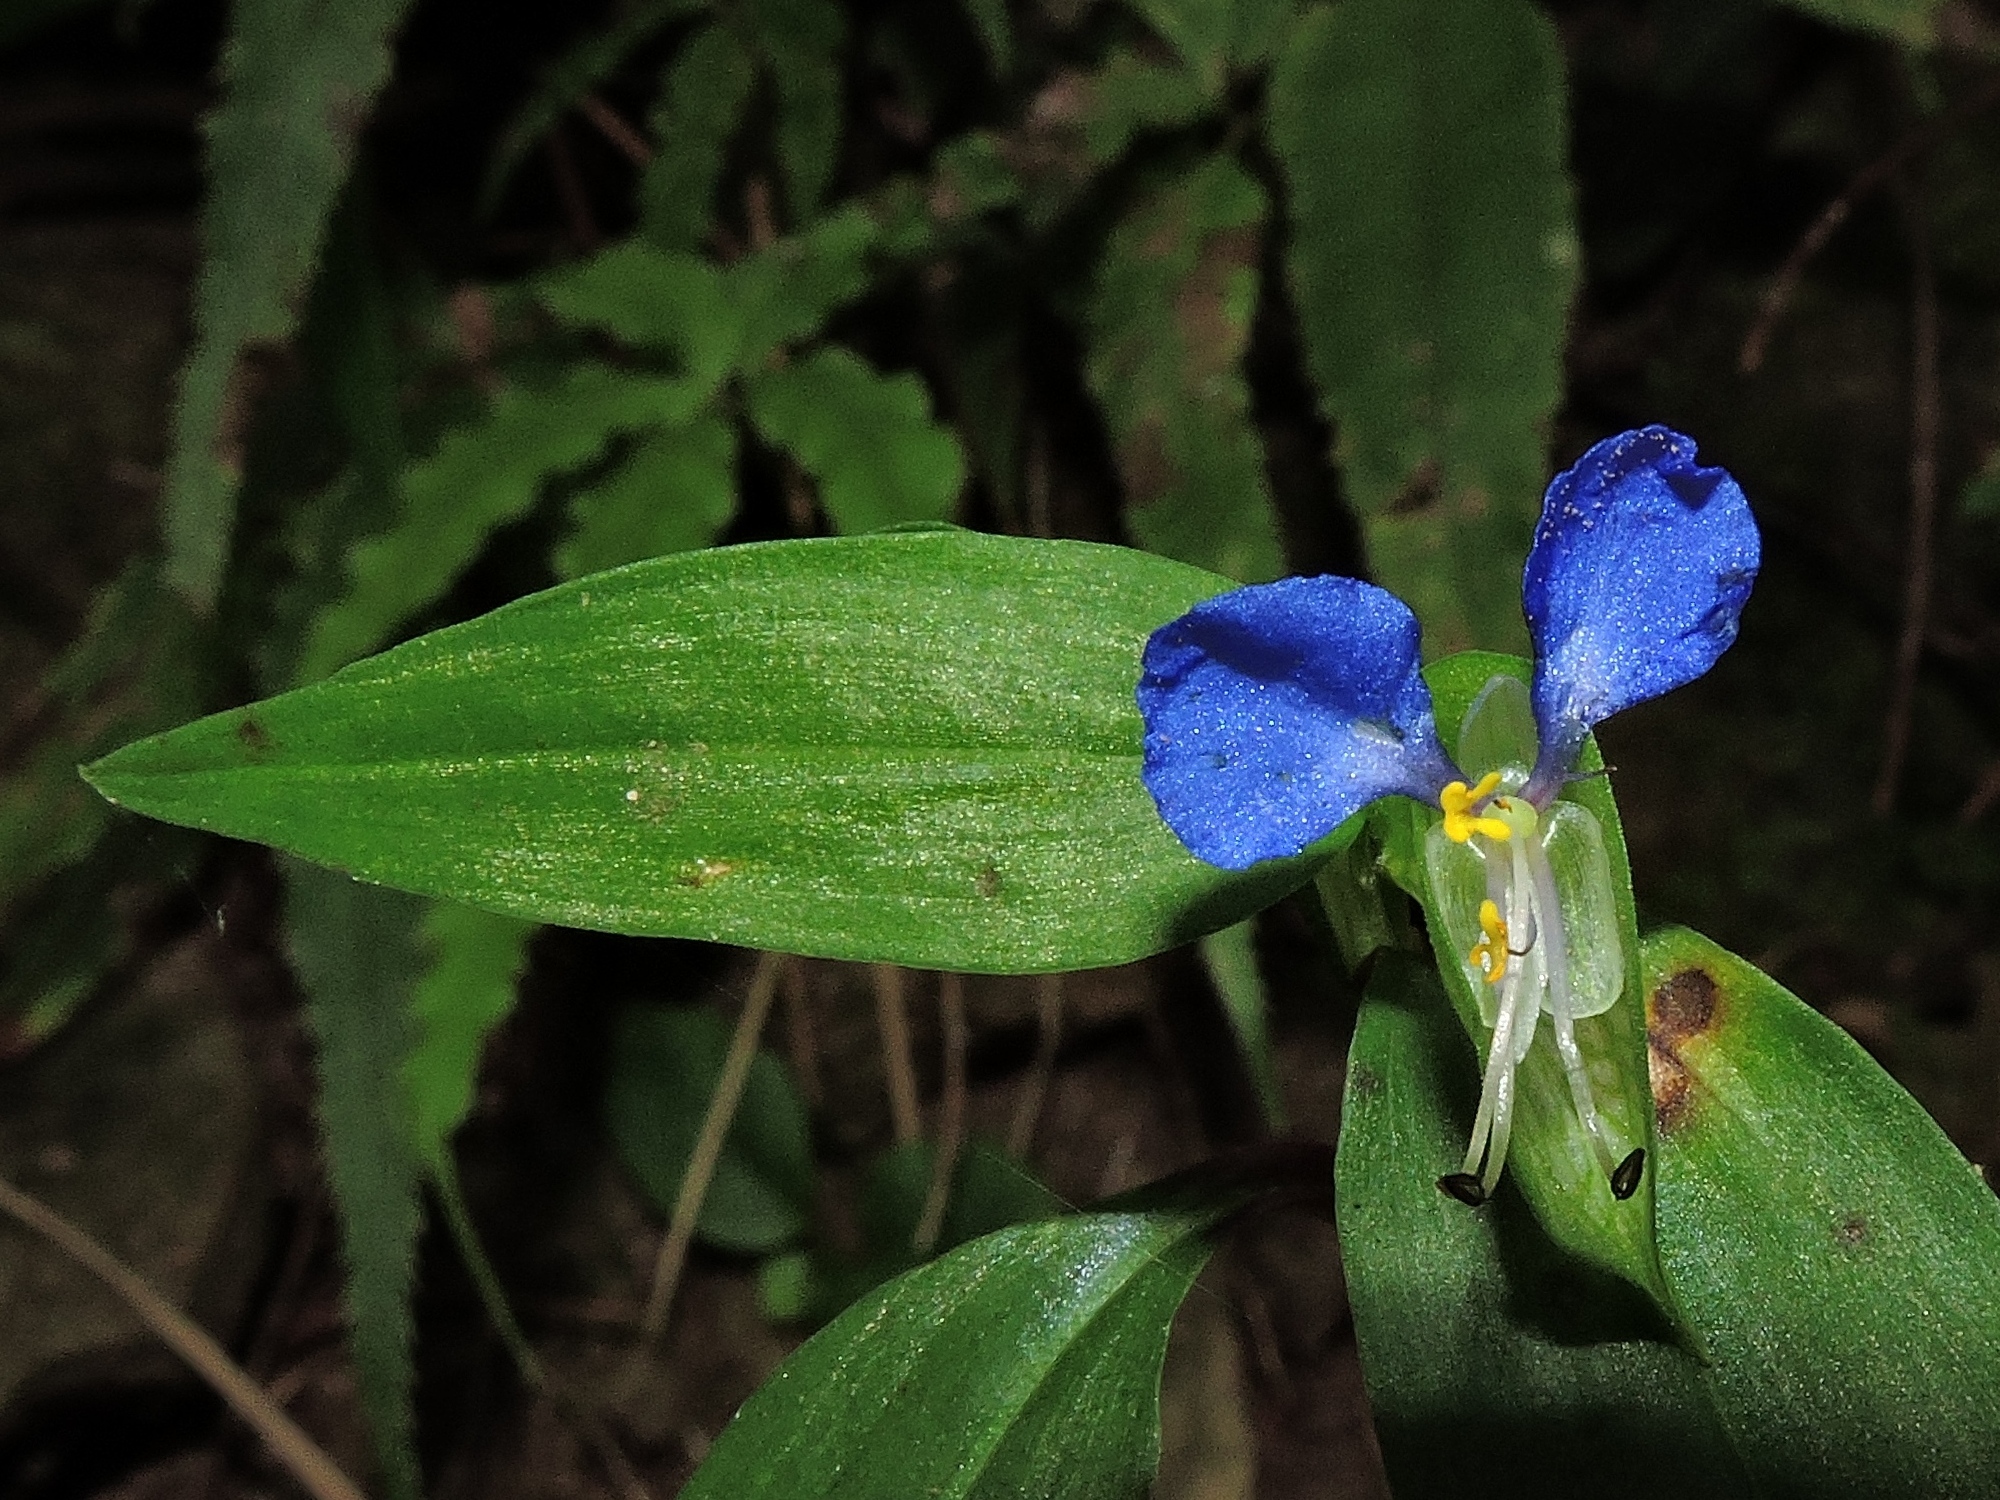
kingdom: Plantae
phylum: Tracheophyta
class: Liliopsida
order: Commelinales
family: Commelinaceae
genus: Commelina
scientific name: Commelina communis
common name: Asiatic dayflower
